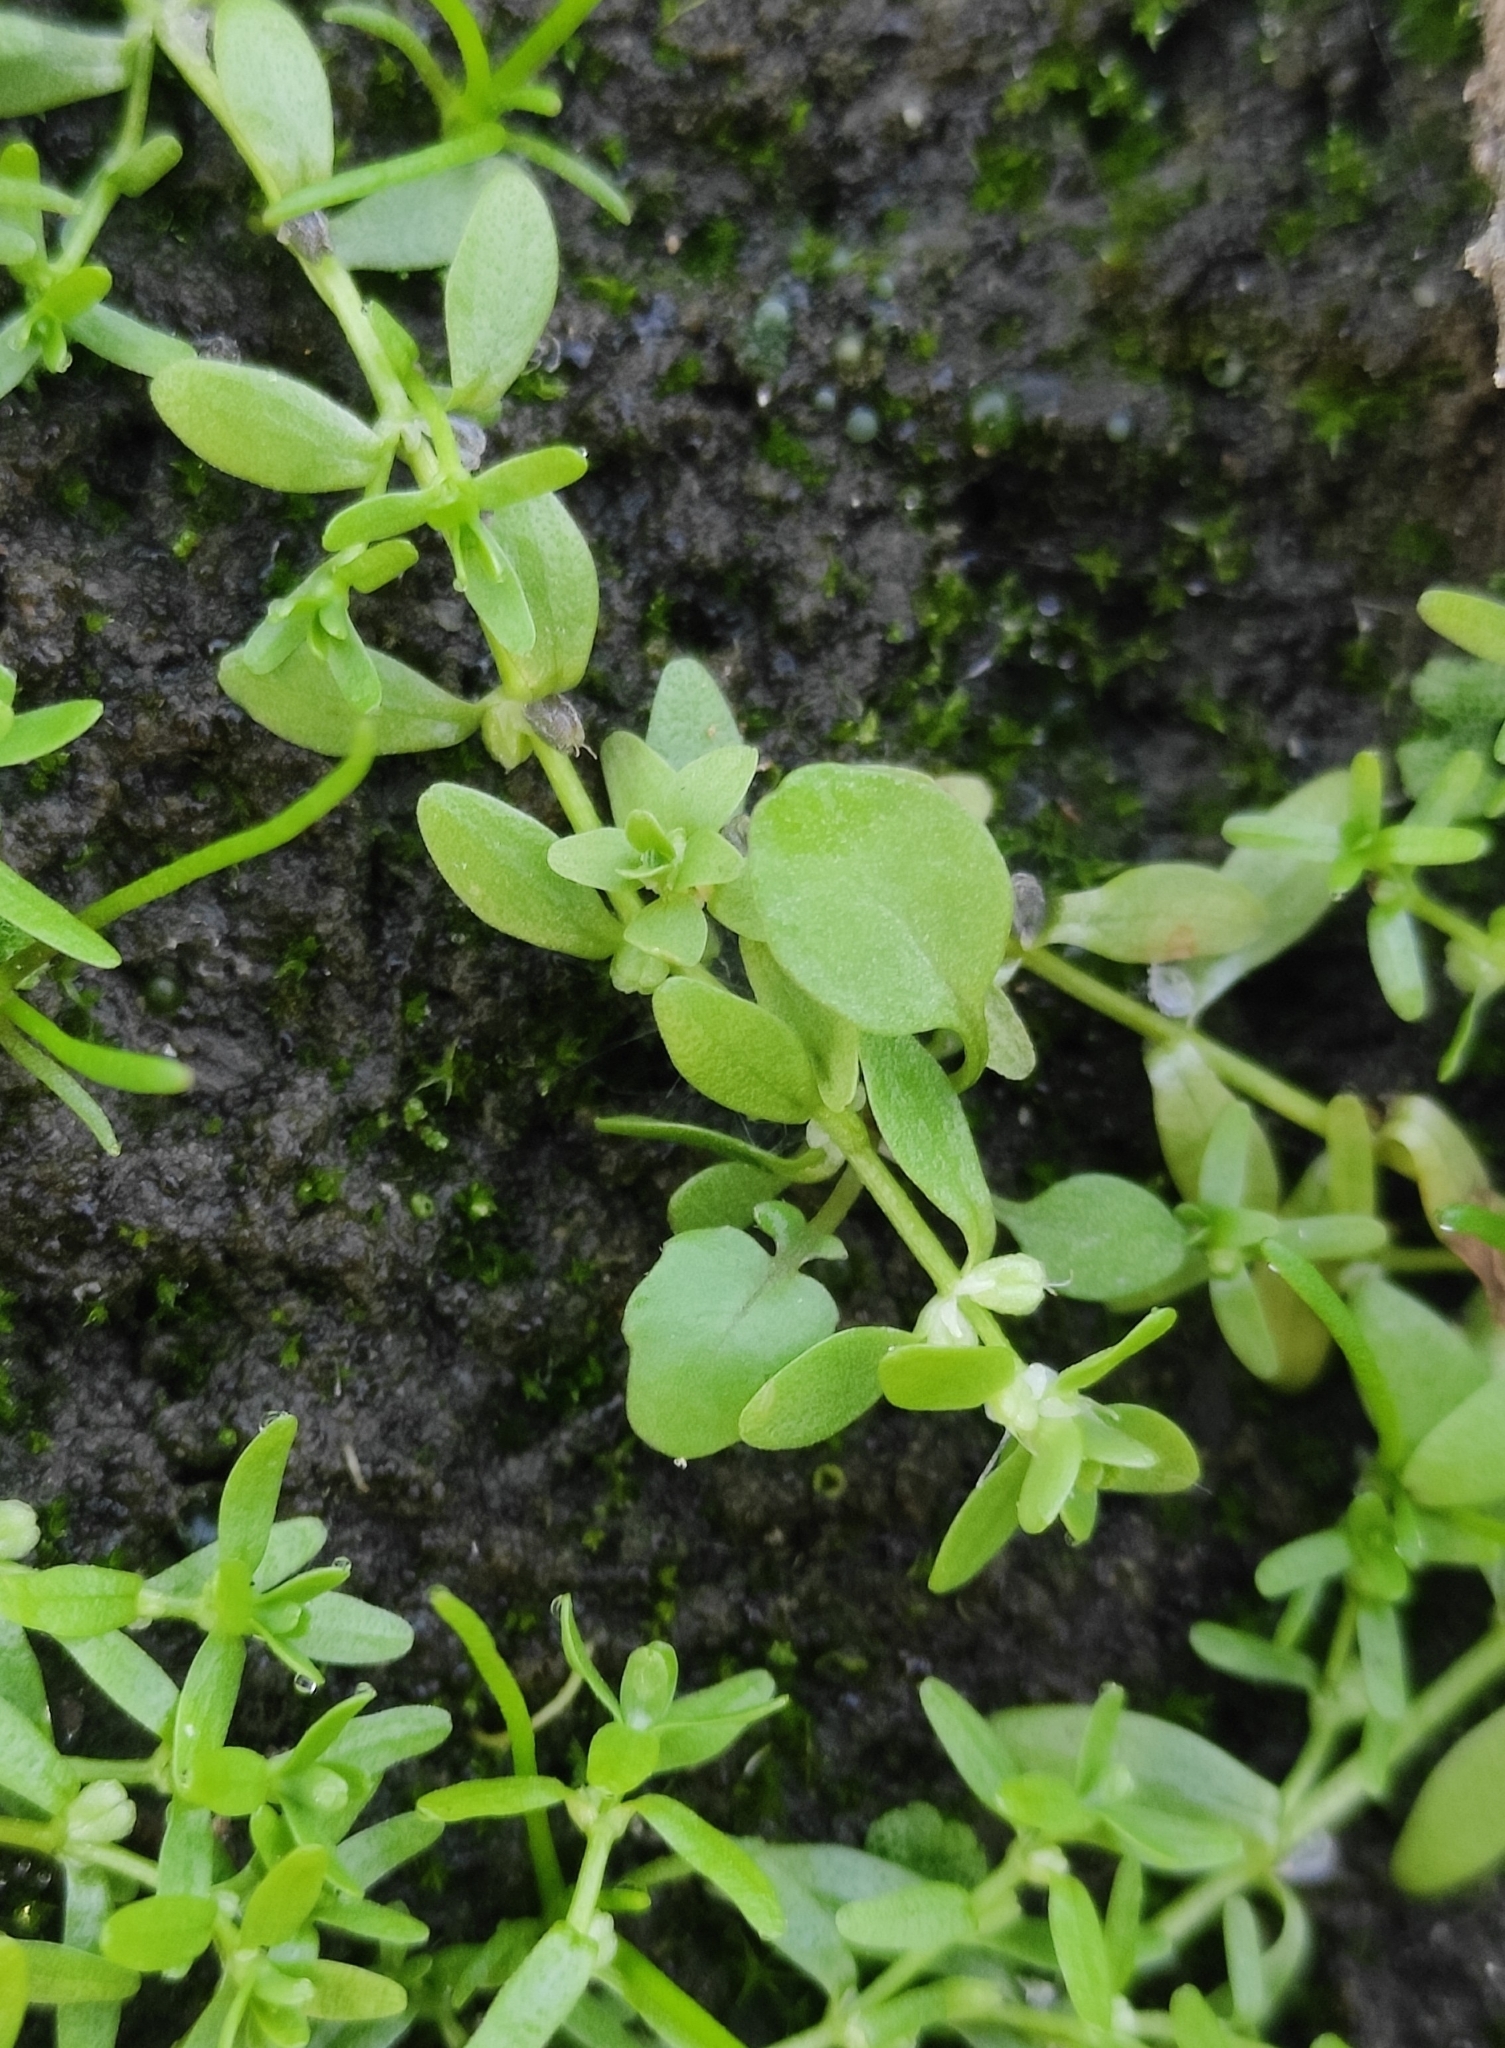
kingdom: Plantae
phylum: Tracheophyta
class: Magnoliopsida
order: Lamiales
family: Plantaginaceae
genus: Callitriche
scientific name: Callitriche palustris
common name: Spring water-starwort
